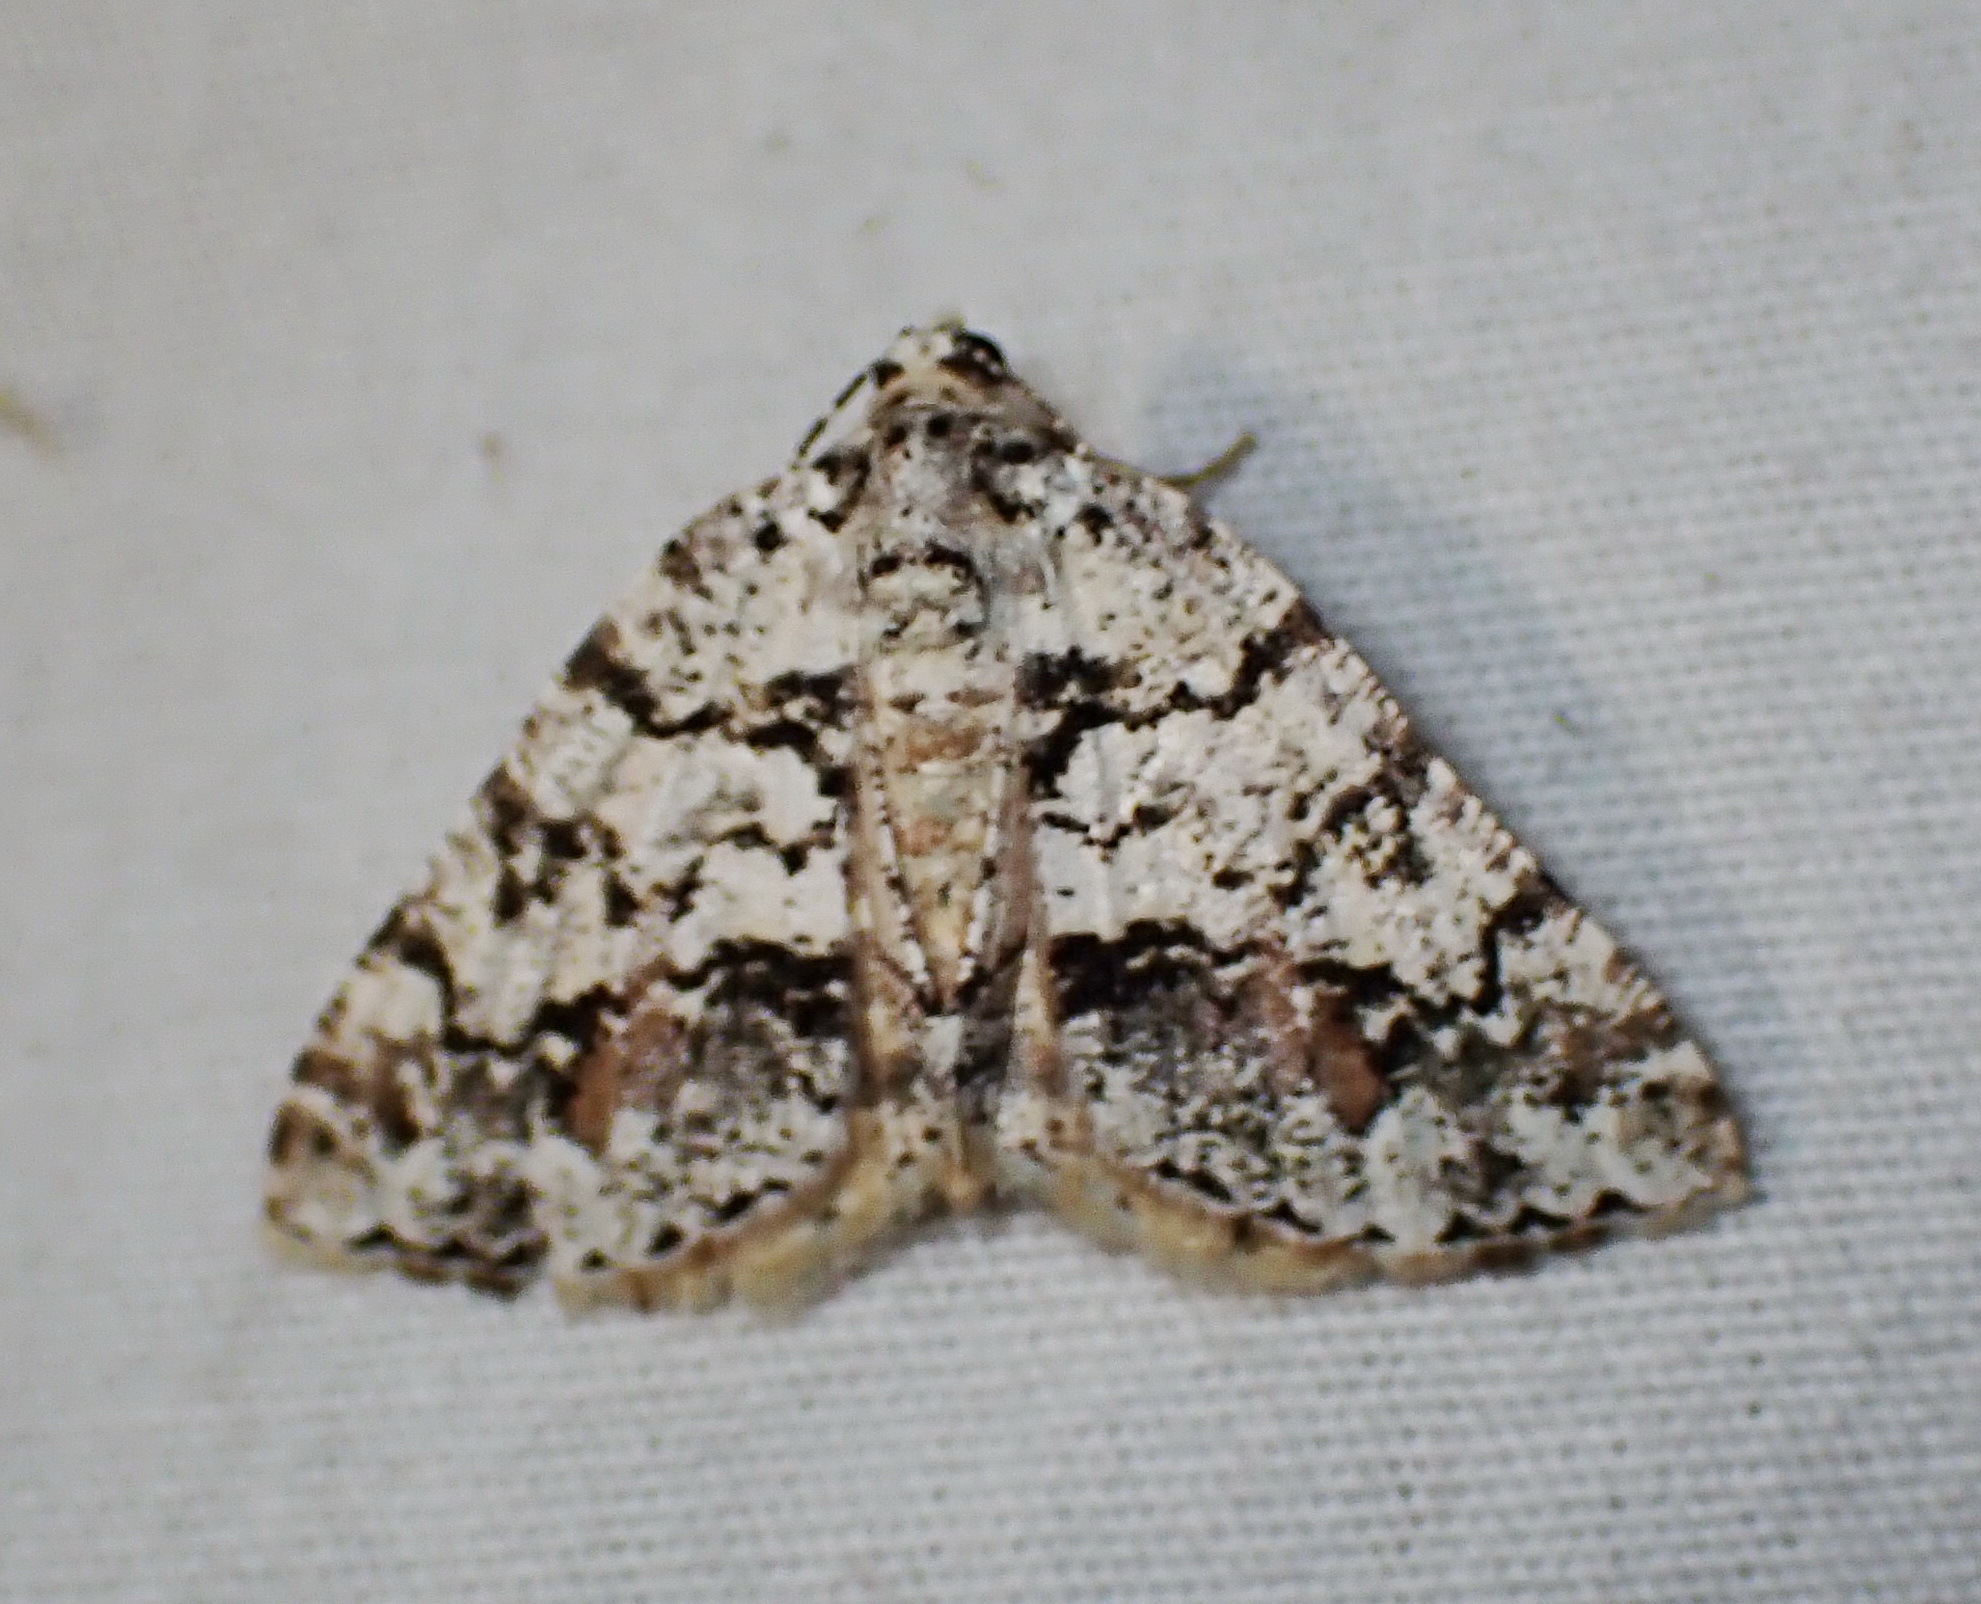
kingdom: Animalia
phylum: Arthropoda
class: Insecta
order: Lepidoptera
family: Geometridae
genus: Macaria
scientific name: Macaria graphidaria
